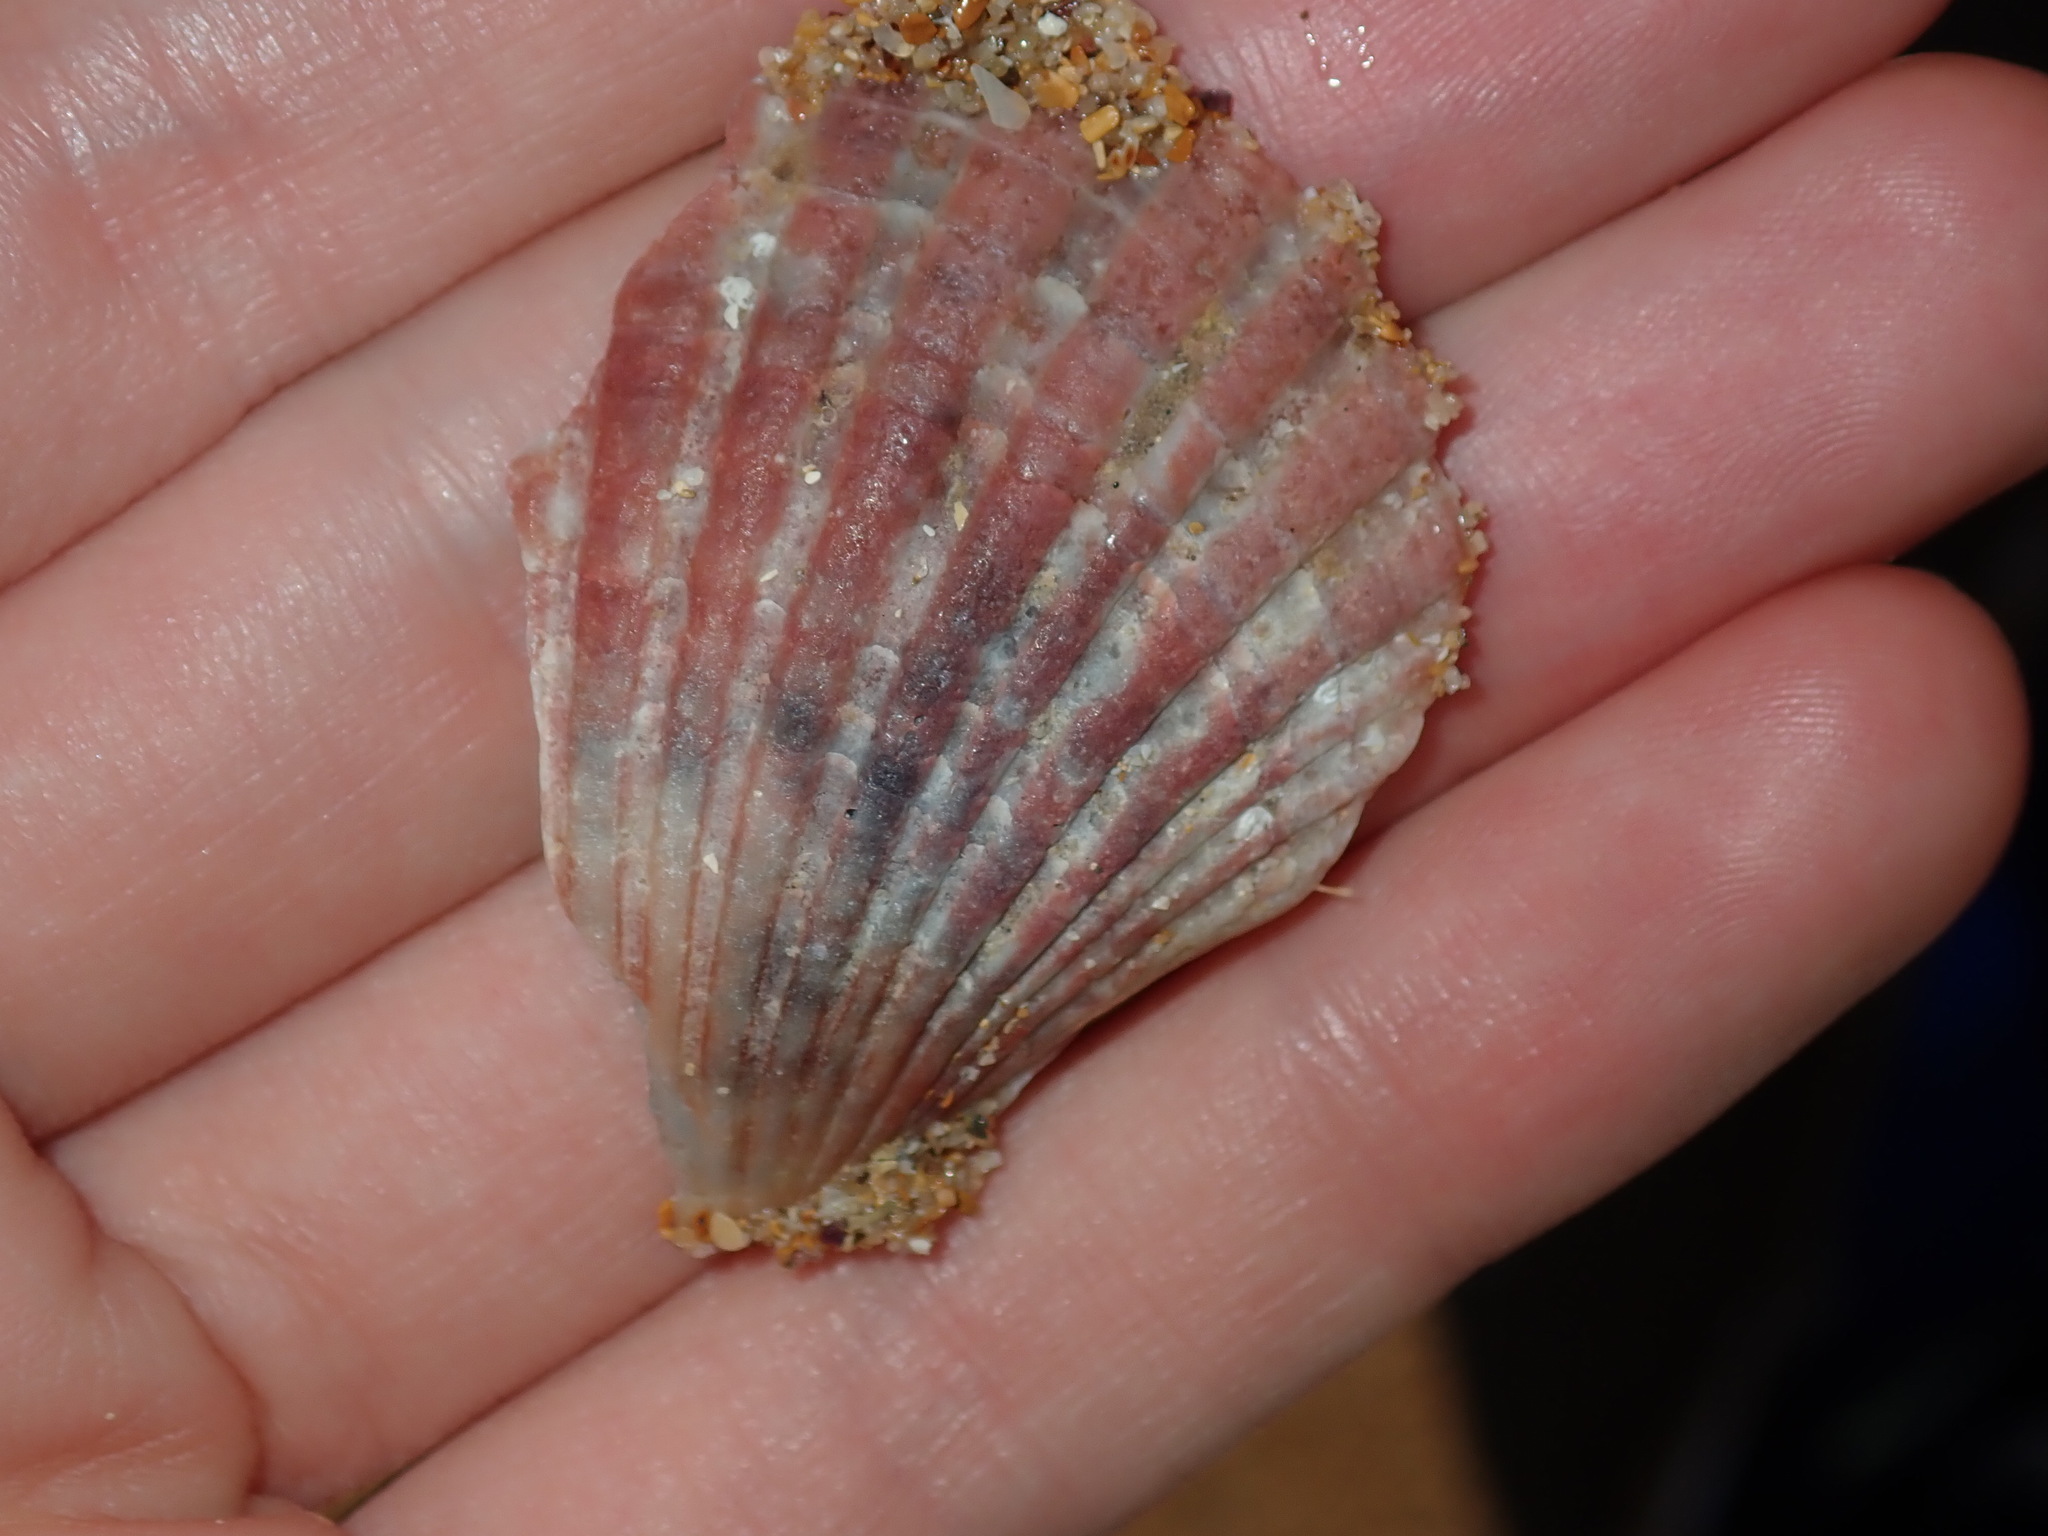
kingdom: Animalia
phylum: Mollusca
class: Bivalvia
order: Pectinida
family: Pectinidae
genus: Pecten
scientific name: Pecten fumatus
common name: Australian scallop
